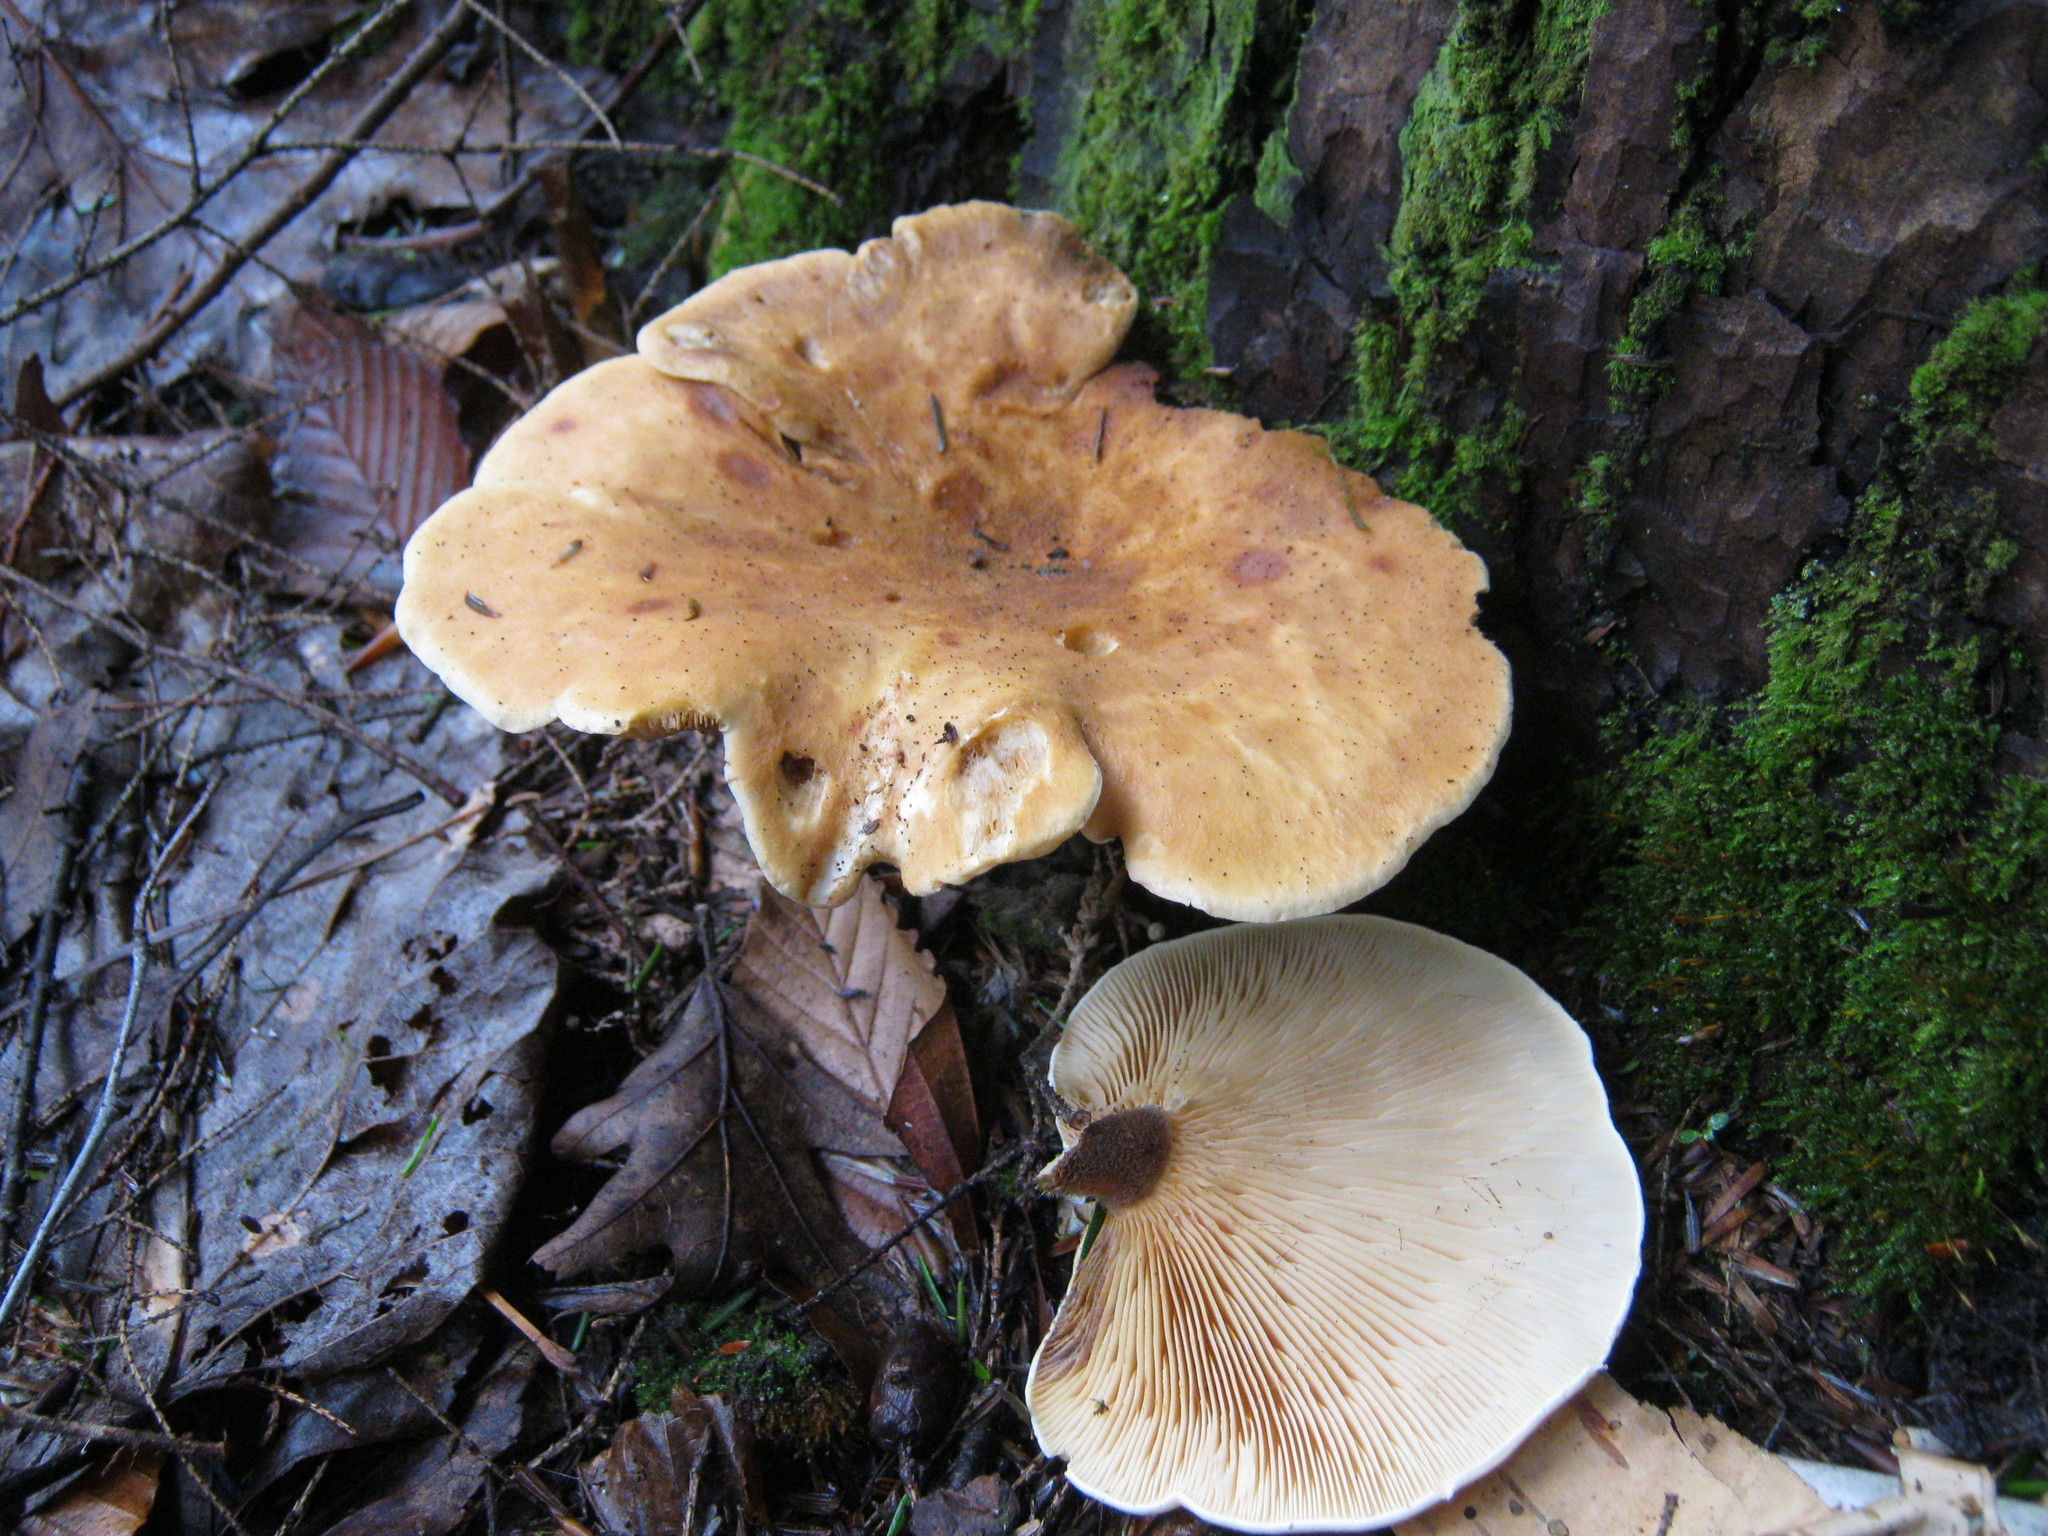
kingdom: Fungi
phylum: Basidiomycota
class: Agaricomycetes
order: Boletales
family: Tapinellaceae
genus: Tapinella
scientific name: Tapinella atrotomentosa
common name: Velvet rollrim
